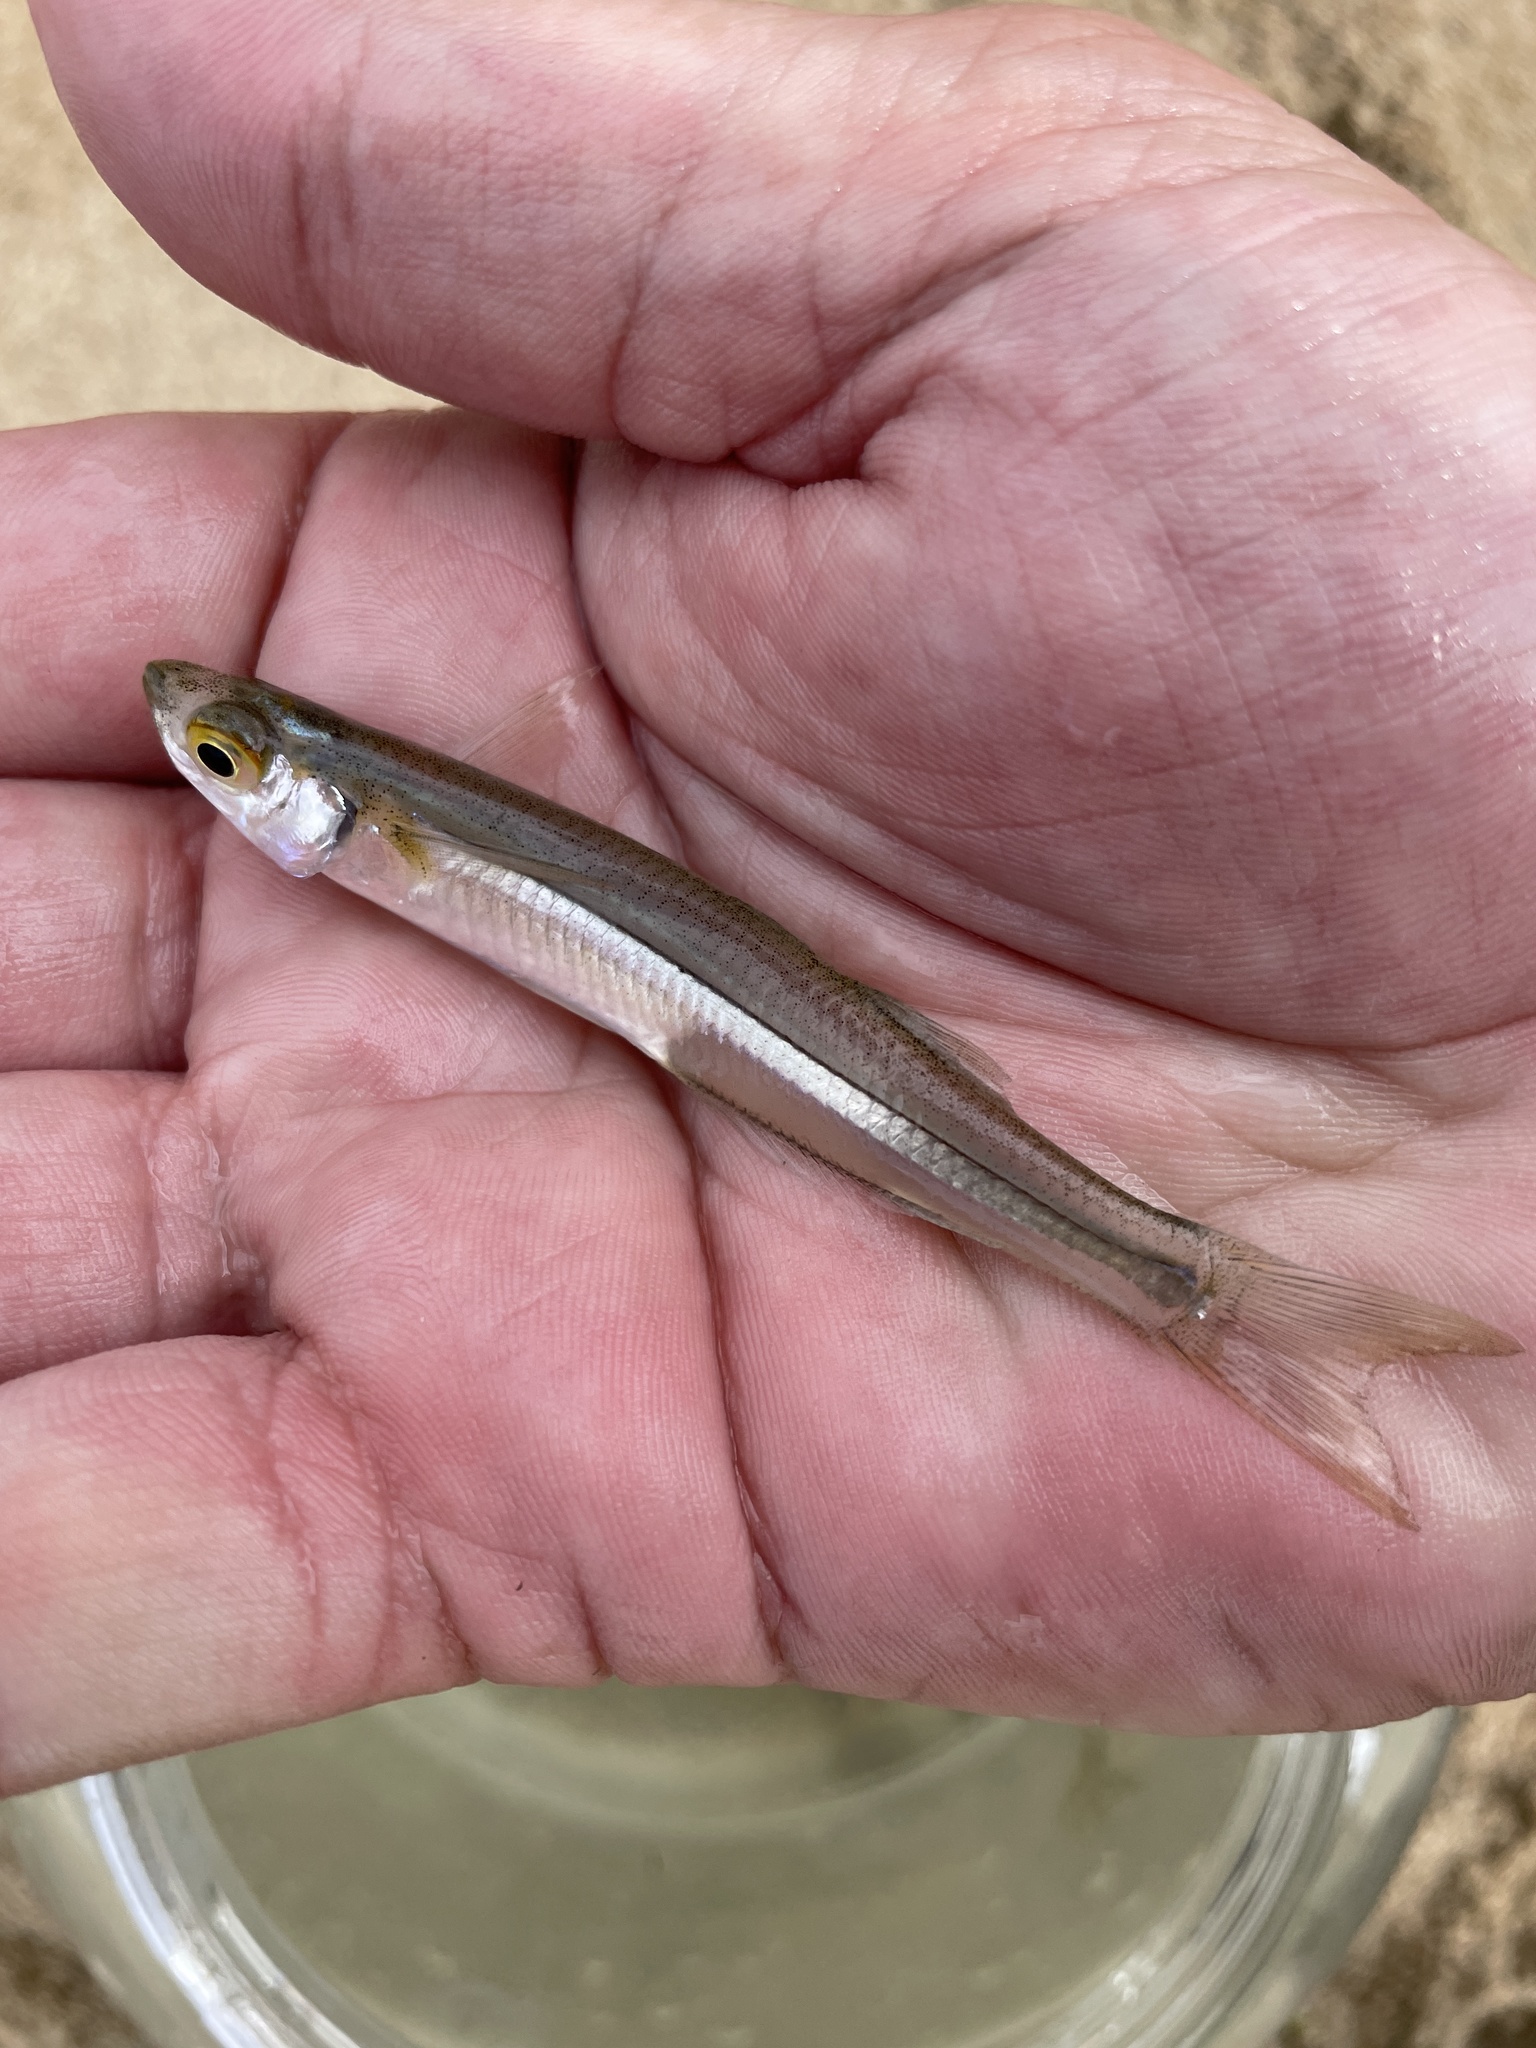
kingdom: Animalia
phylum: Chordata
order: Atheriniformes
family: Atherinopsidae
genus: Menidia
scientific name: Menidia menidia
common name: Atlantic silverside
